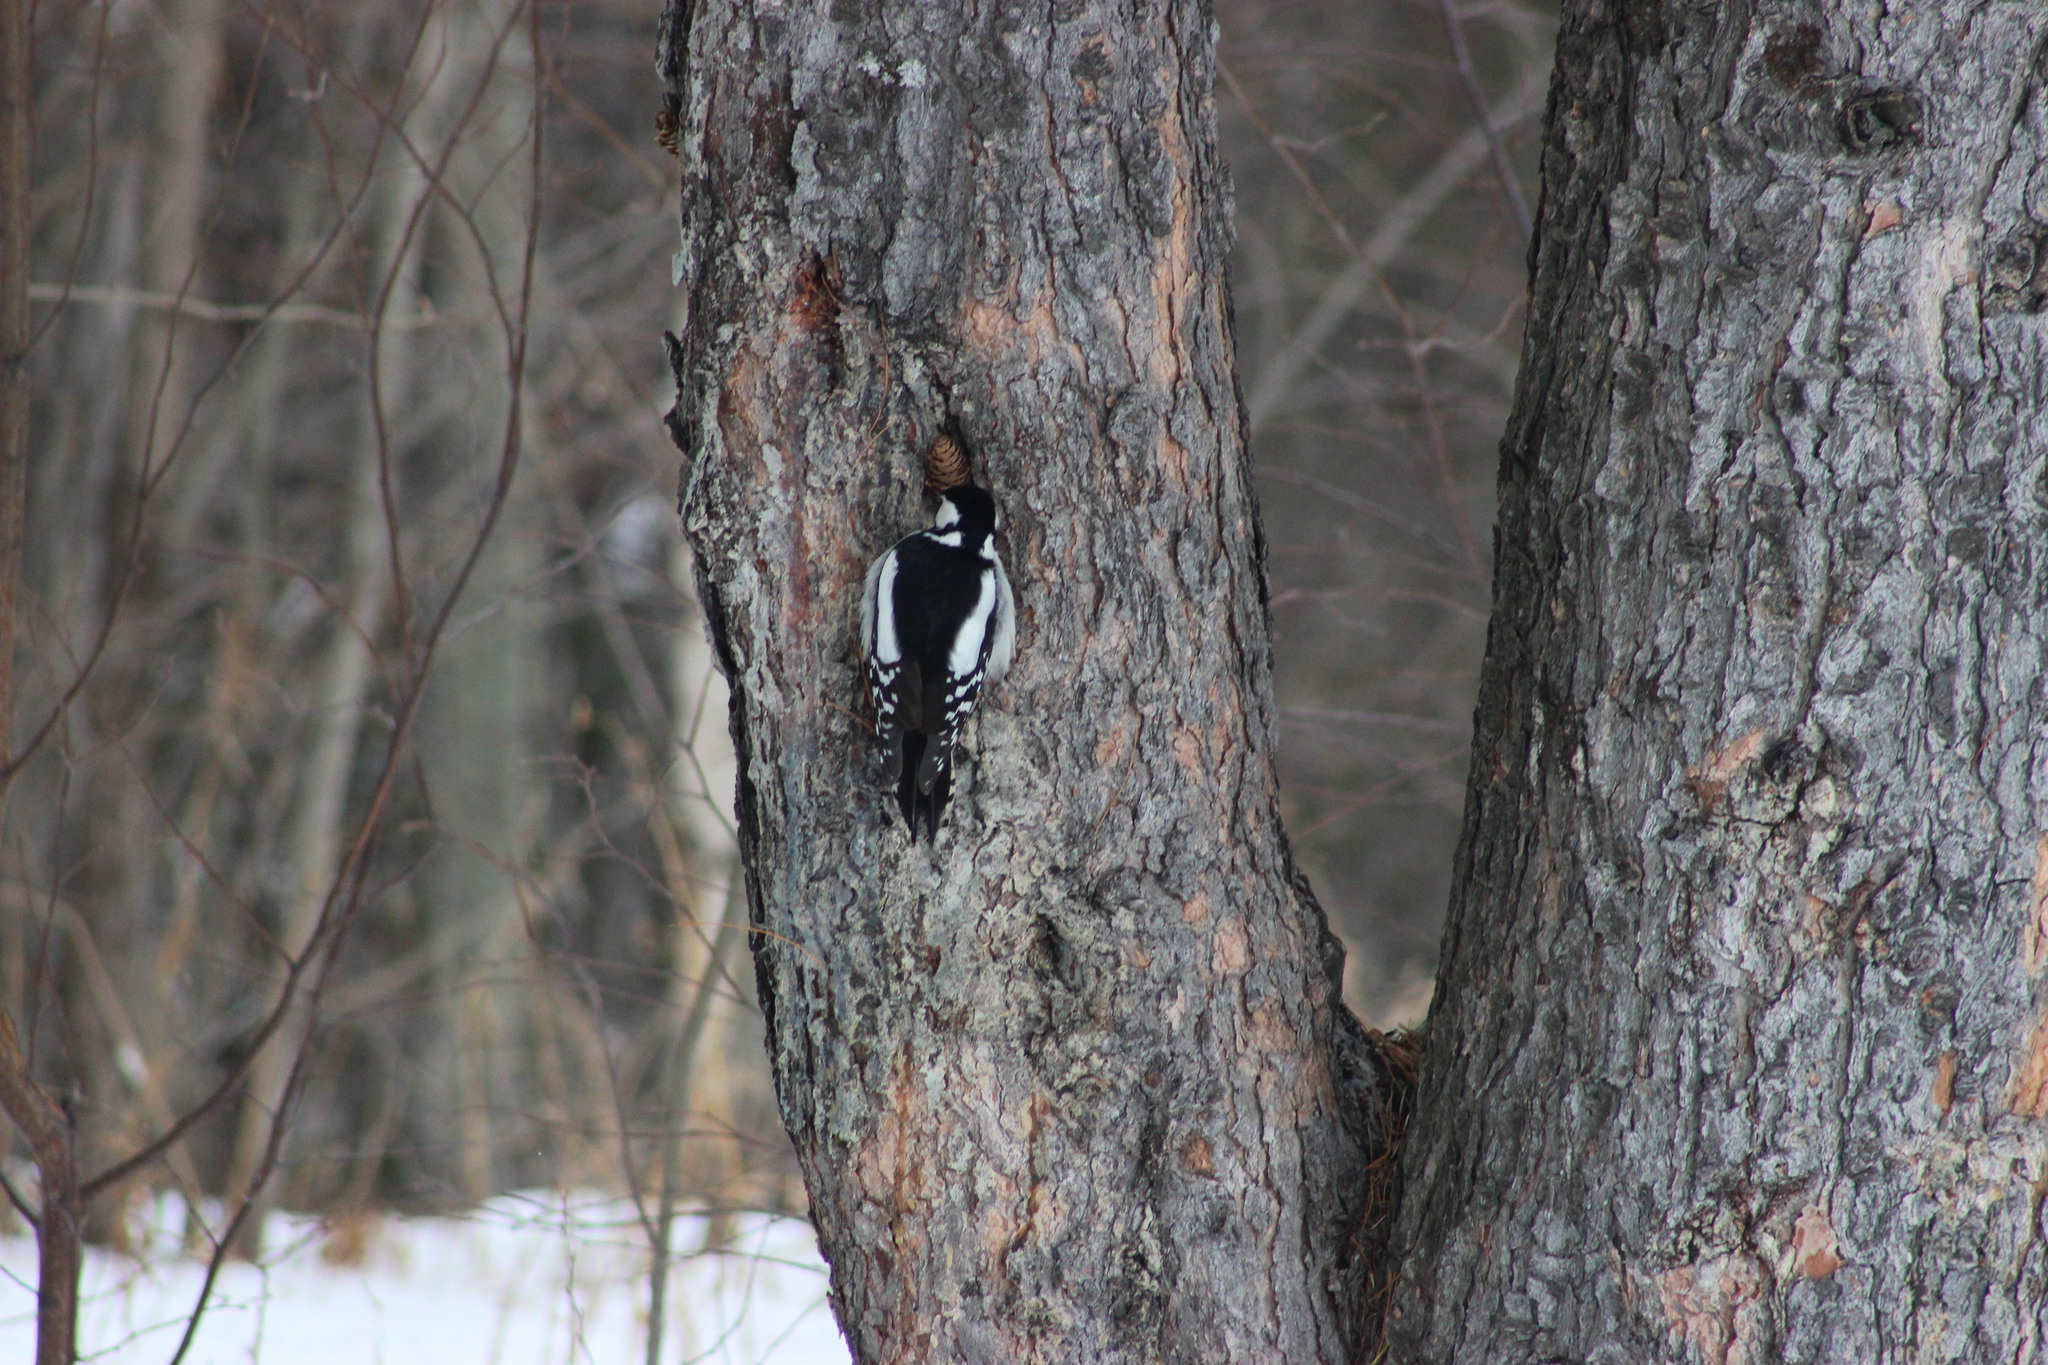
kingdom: Animalia
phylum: Chordata
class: Aves
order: Piciformes
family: Picidae
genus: Dendrocopos
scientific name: Dendrocopos major
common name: Great spotted woodpecker
